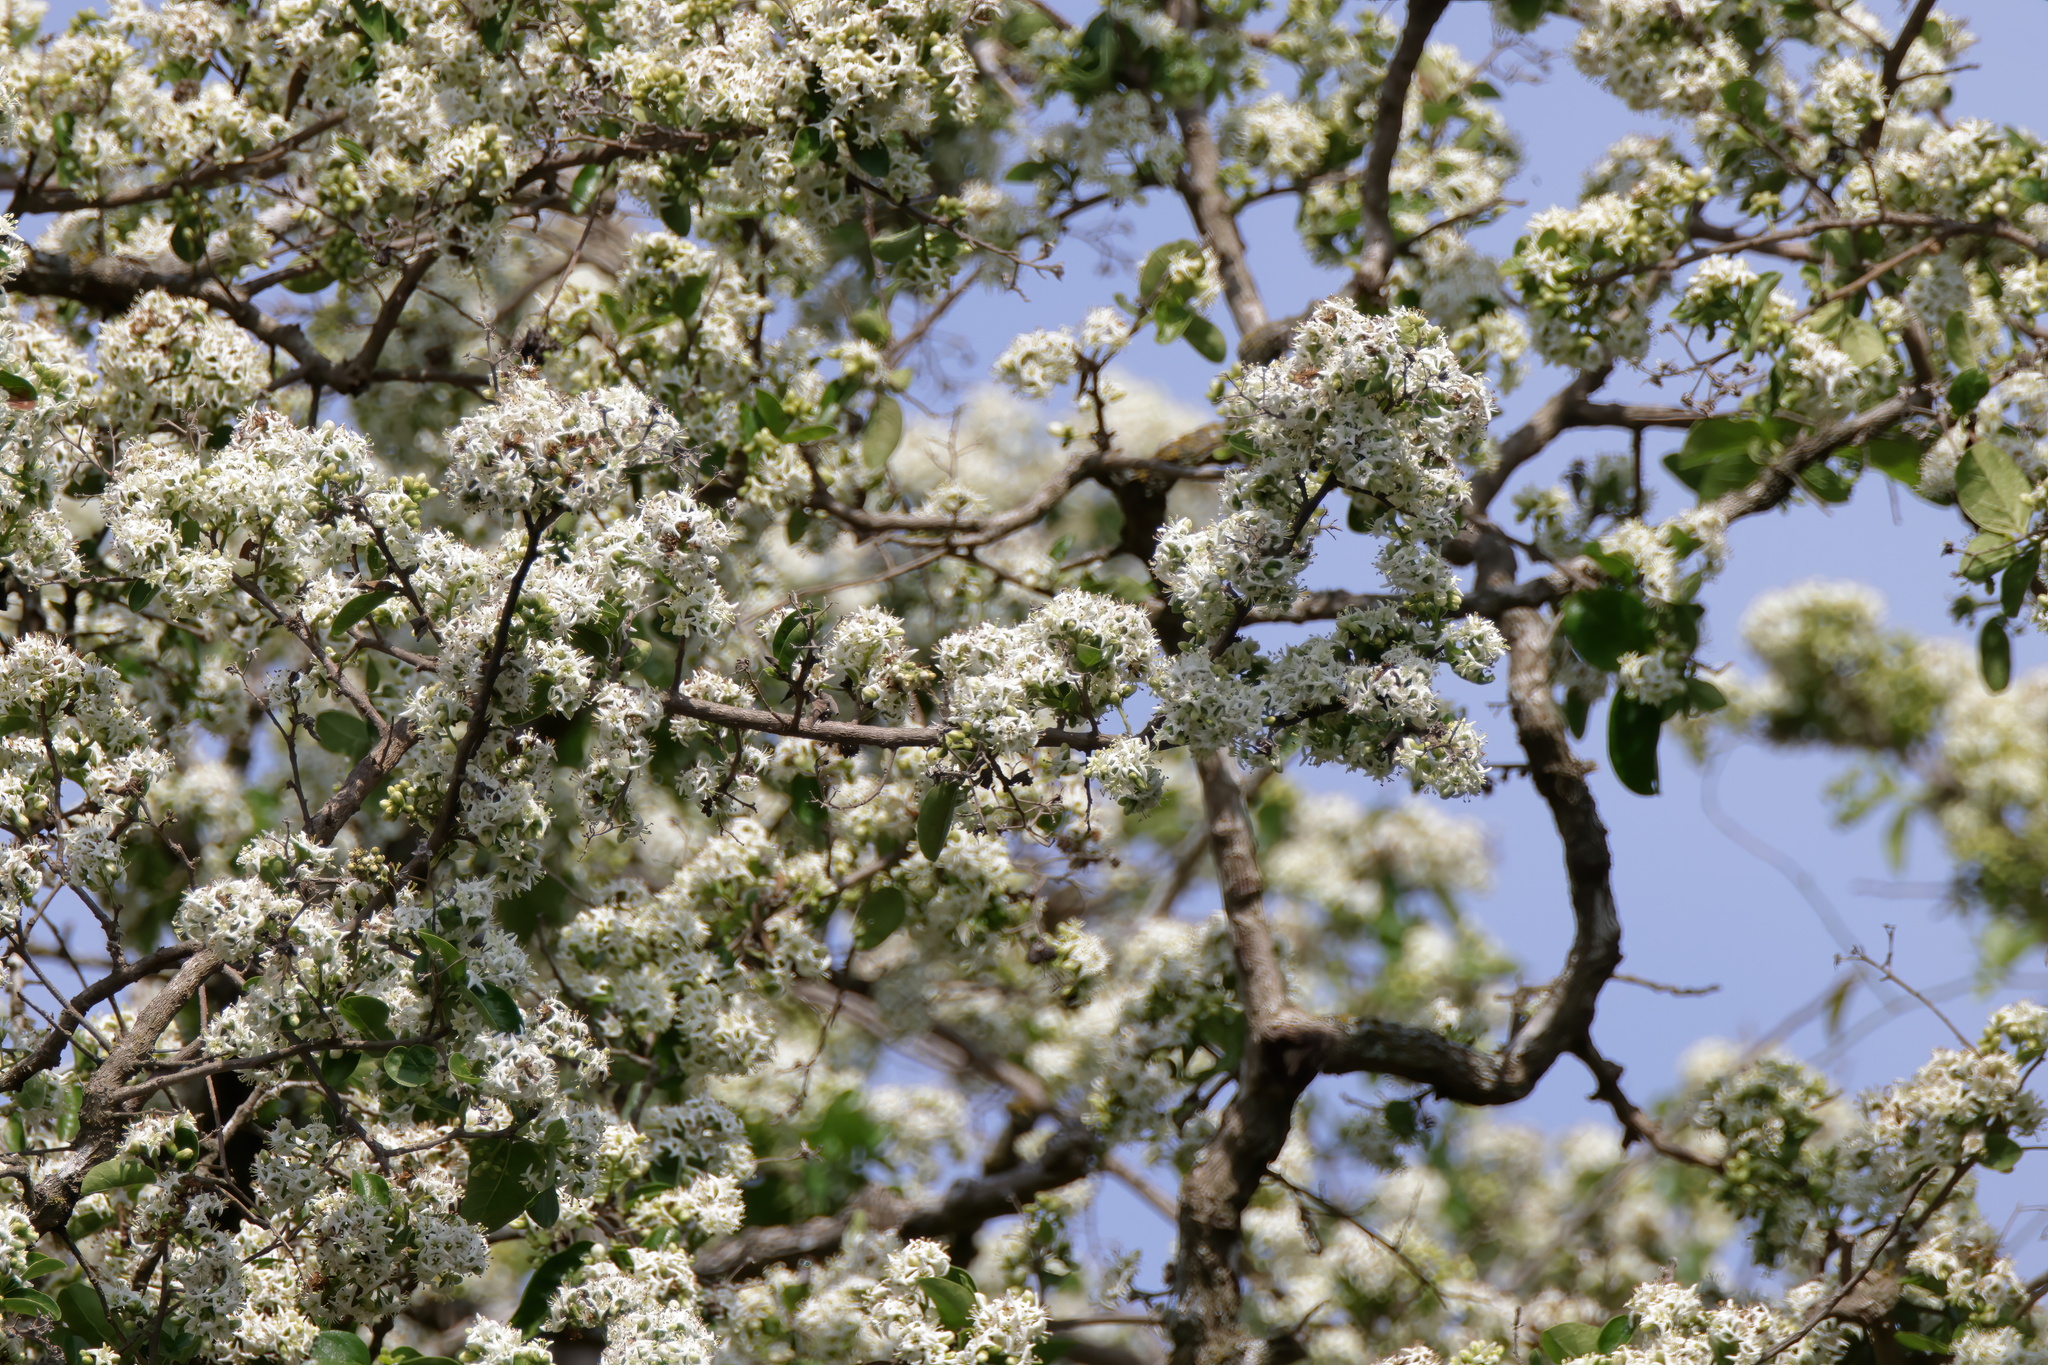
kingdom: Plantae
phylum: Tracheophyta
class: Magnoliopsida
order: Boraginales
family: Ehretiaceae
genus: Ehretia
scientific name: Ehretia anacua
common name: Sugarberry
